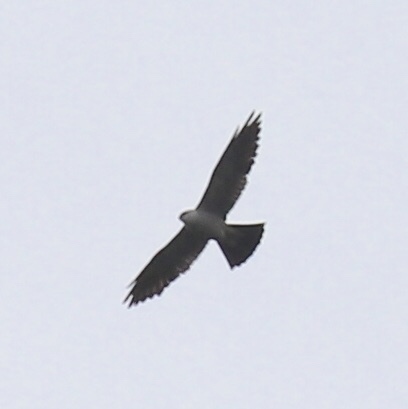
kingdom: Animalia
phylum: Chordata
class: Aves
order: Accipitriformes
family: Accipitridae
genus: Ictinia
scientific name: Ictinia mississippiensis
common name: Mississippi kite
